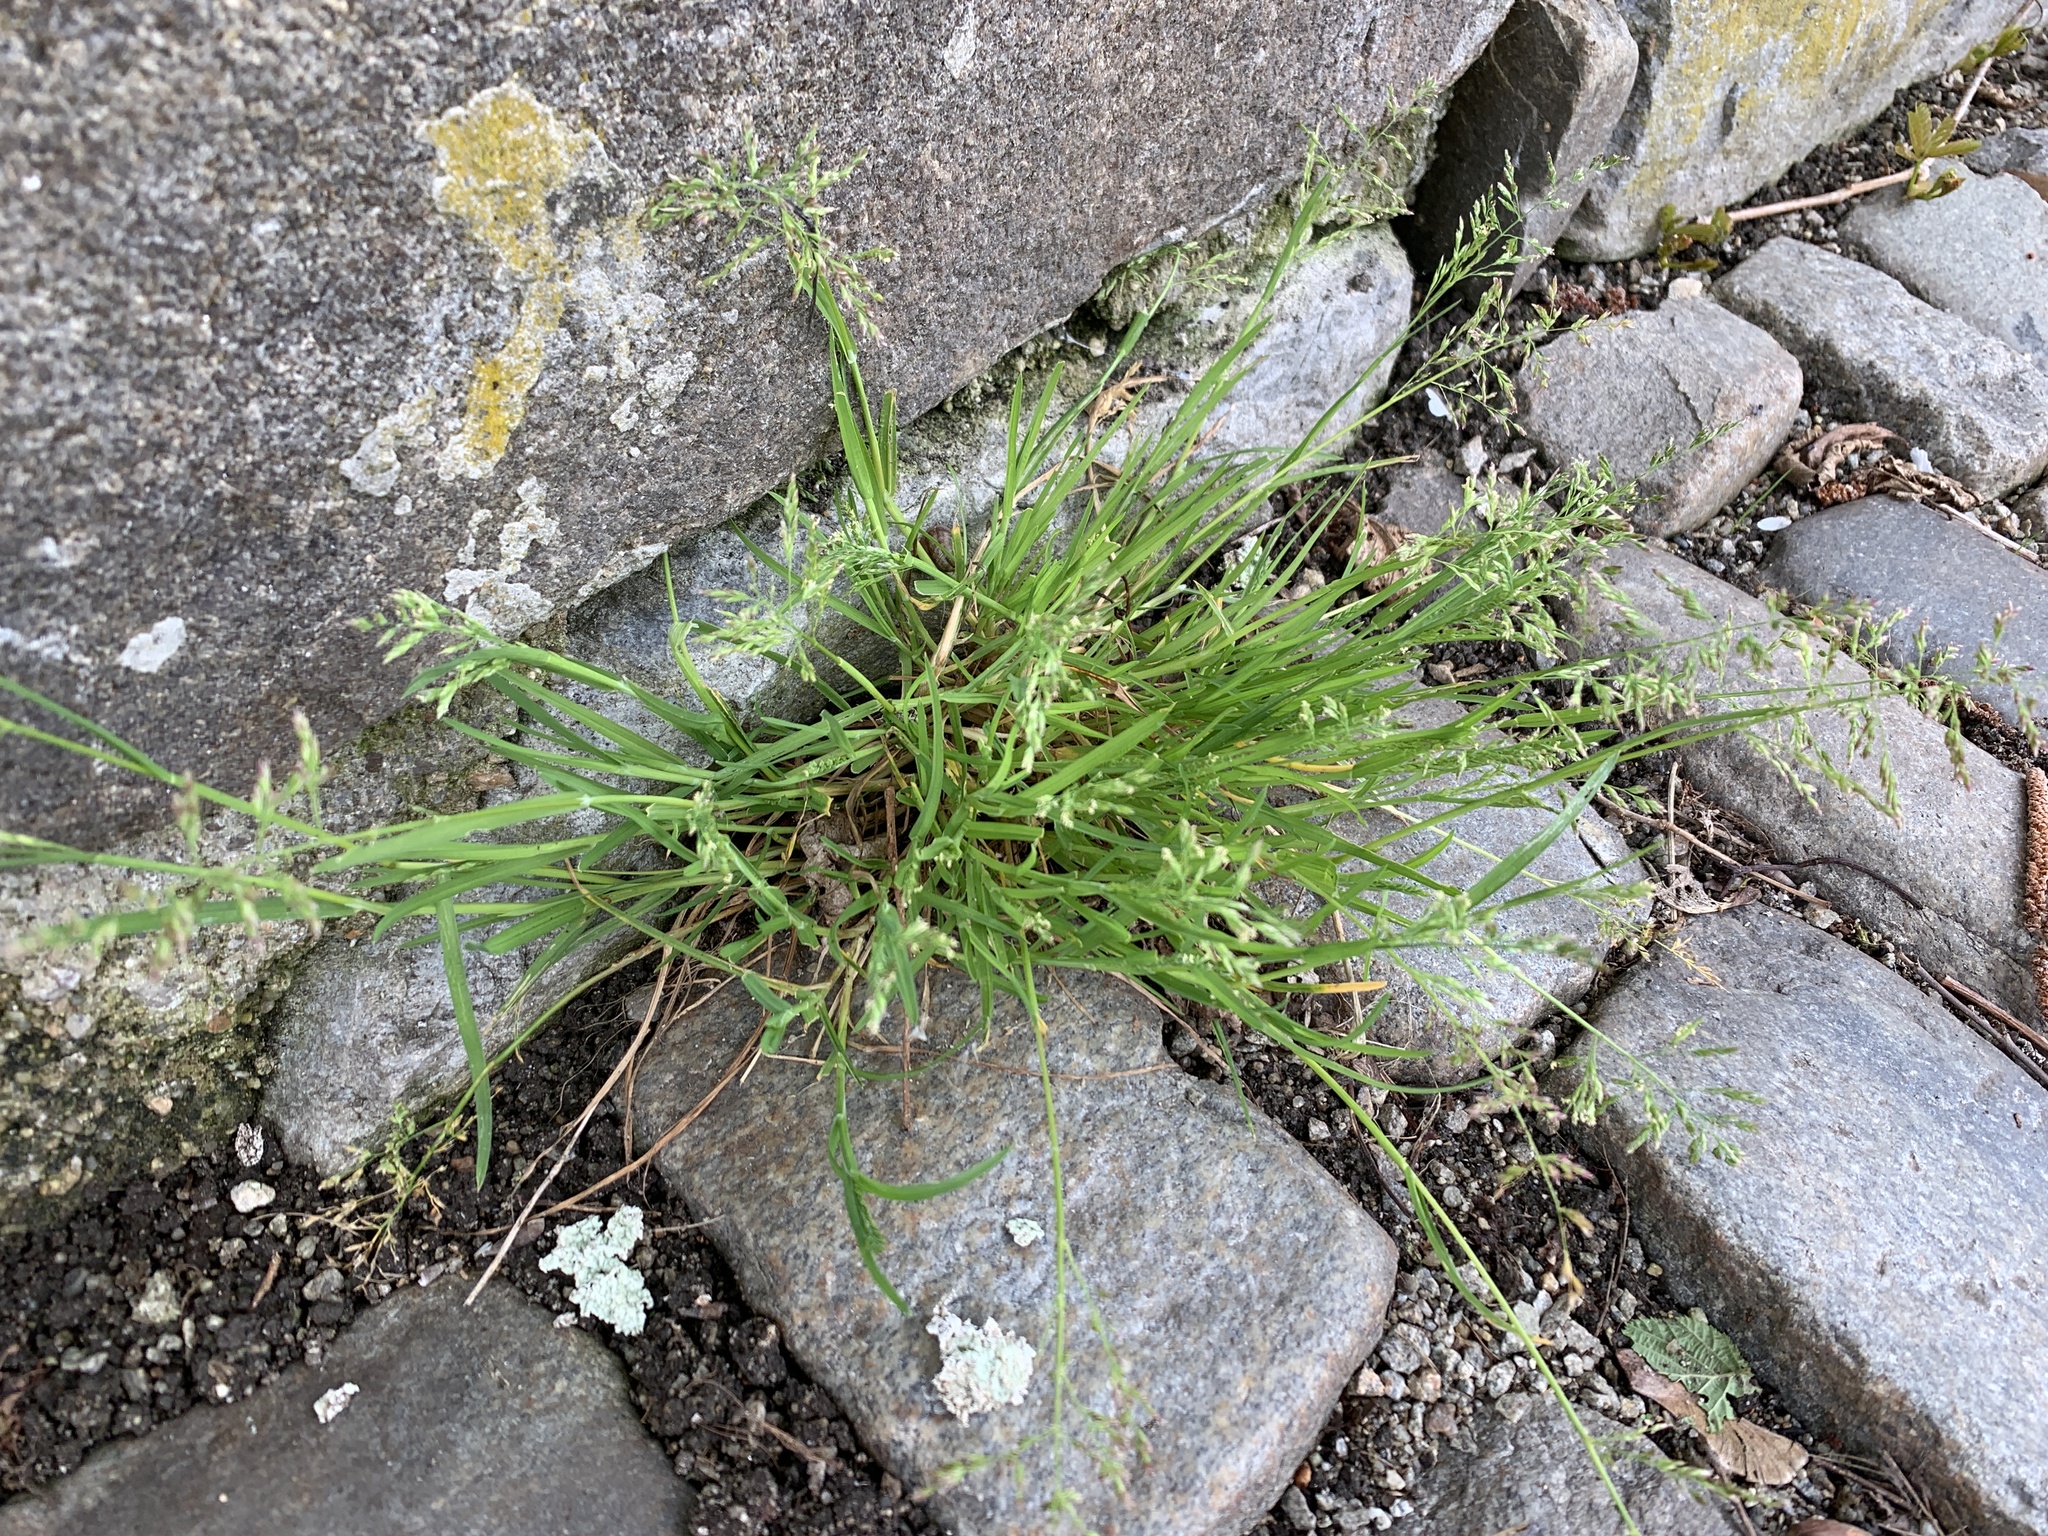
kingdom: Plantae
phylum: Tracheophyta
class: Liliopsida
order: Poales
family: Poaceae
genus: Poa
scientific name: Poa annua
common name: Annual bluegrass
